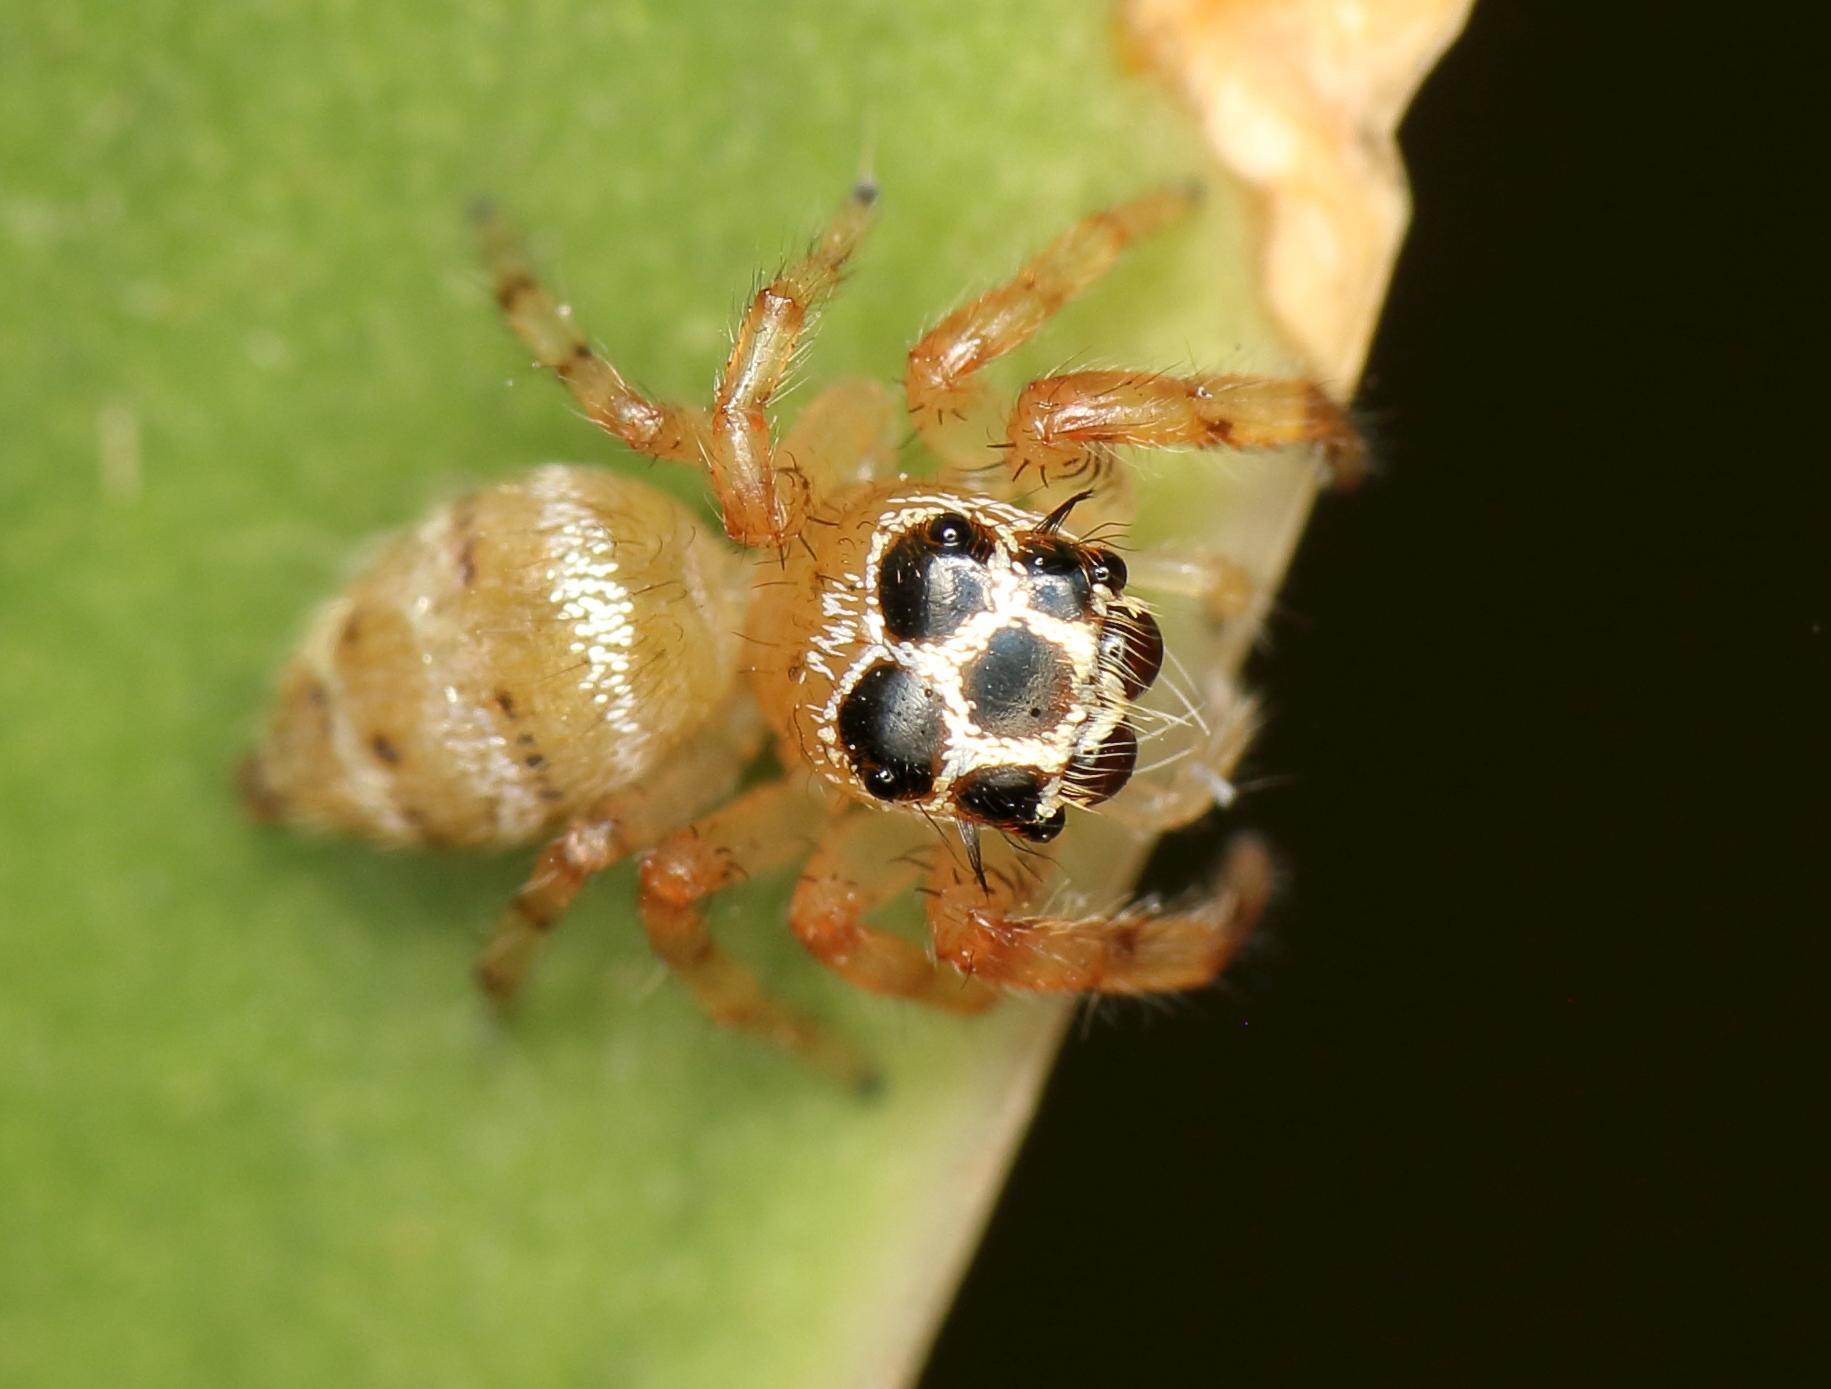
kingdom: Animalia
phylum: Arthropoda
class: Arachnida
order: Araneae
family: Salticidae
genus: Thyene
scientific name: Thyene natalii
